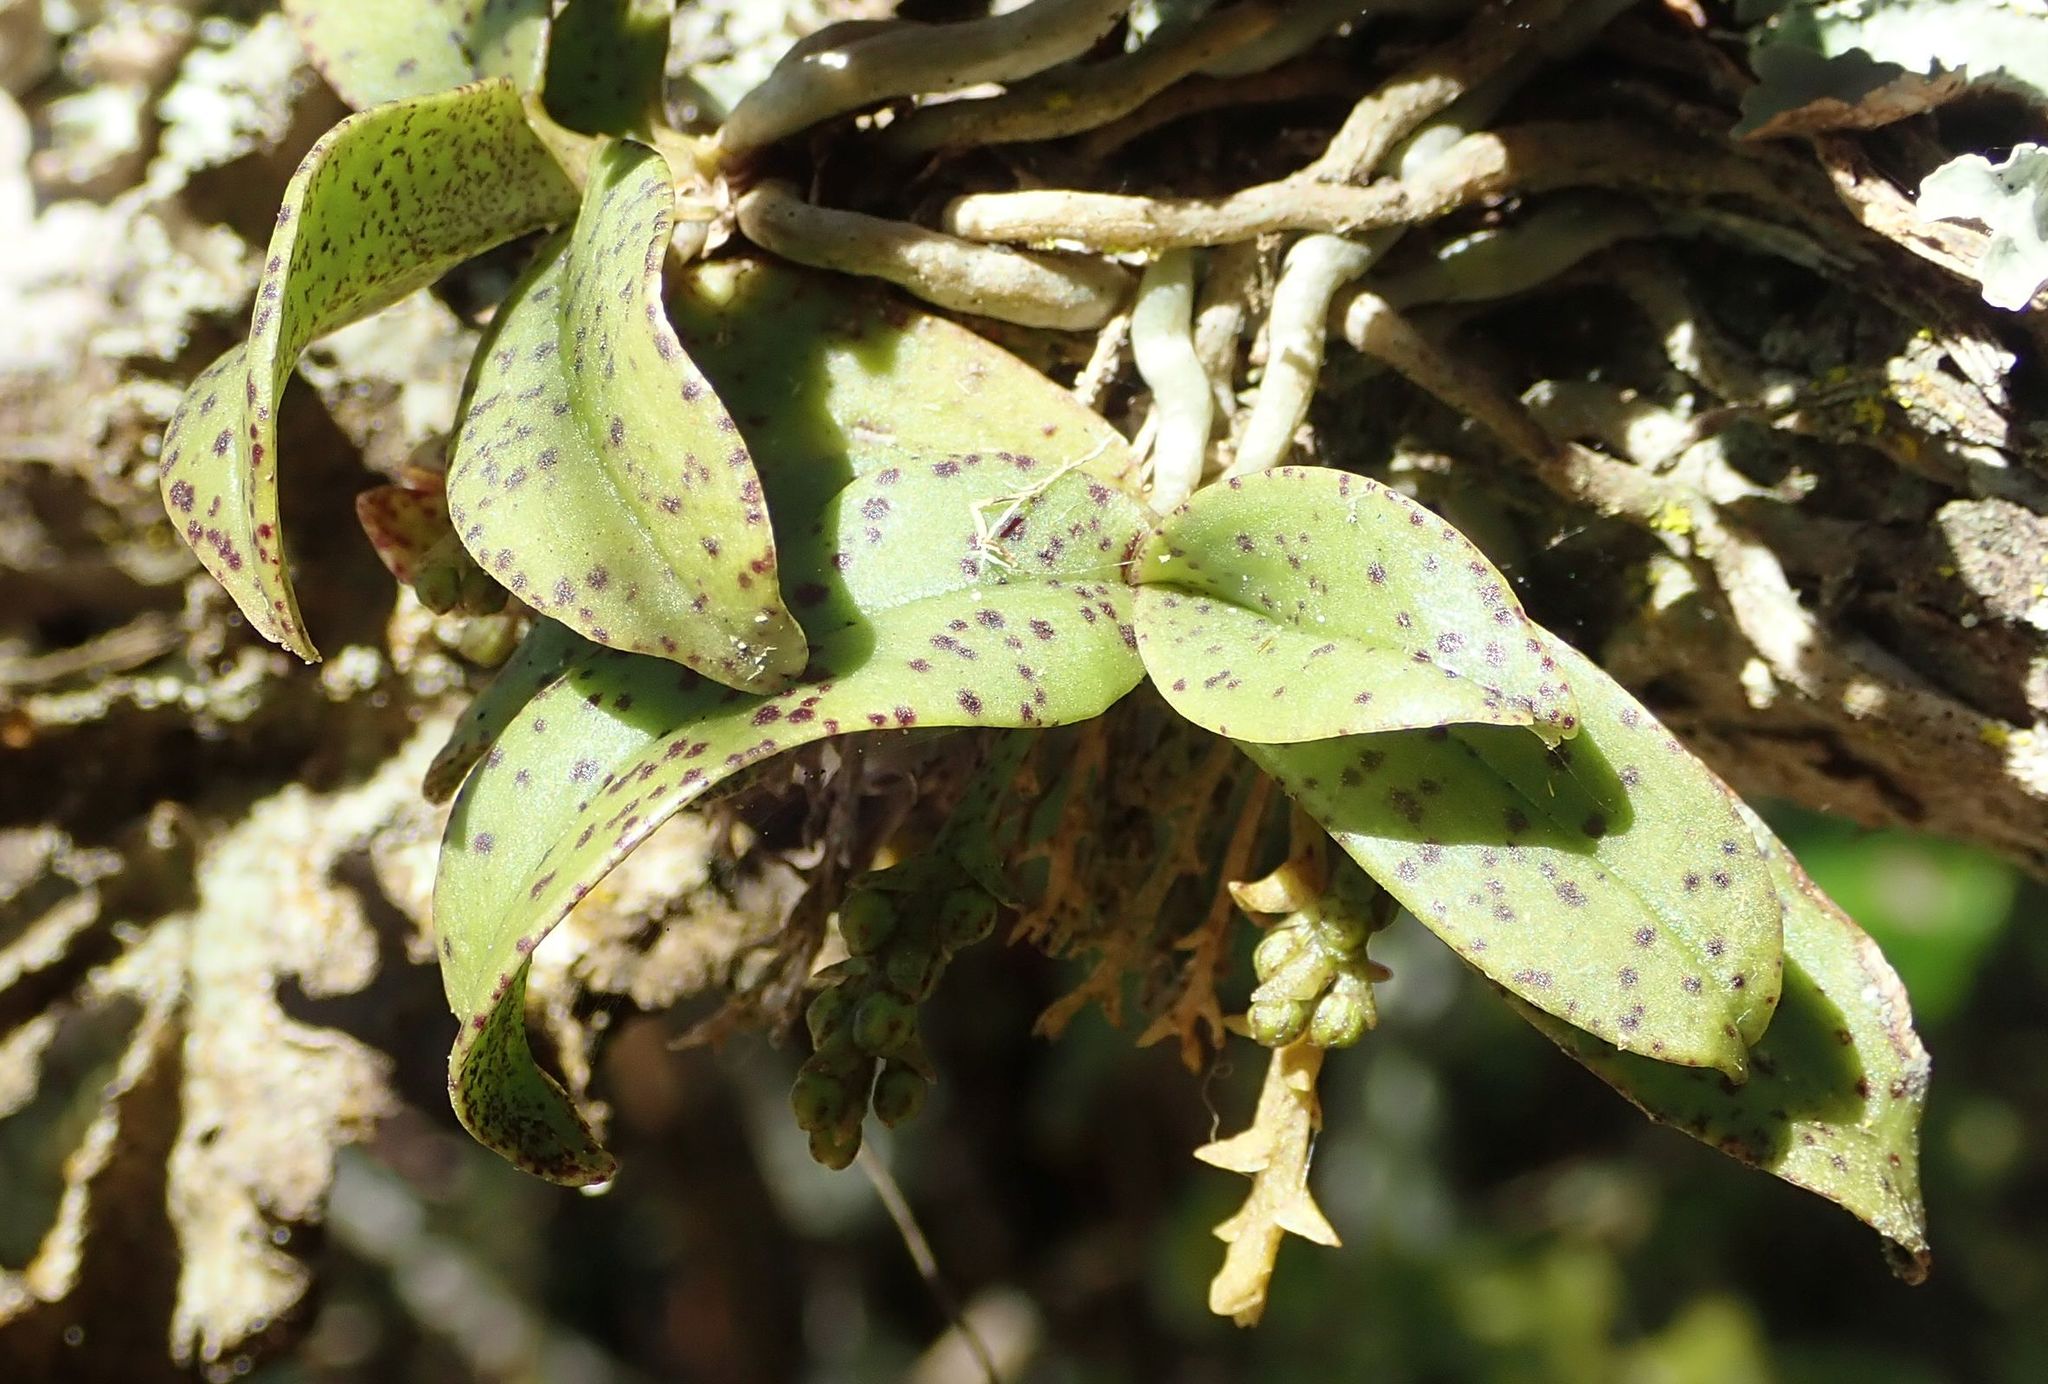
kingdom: Plantae
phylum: Tracheophyta
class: Liliopsida
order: Asparagales
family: Orchidaceae
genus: Drymoanthus
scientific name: Drymoanthus flavus
